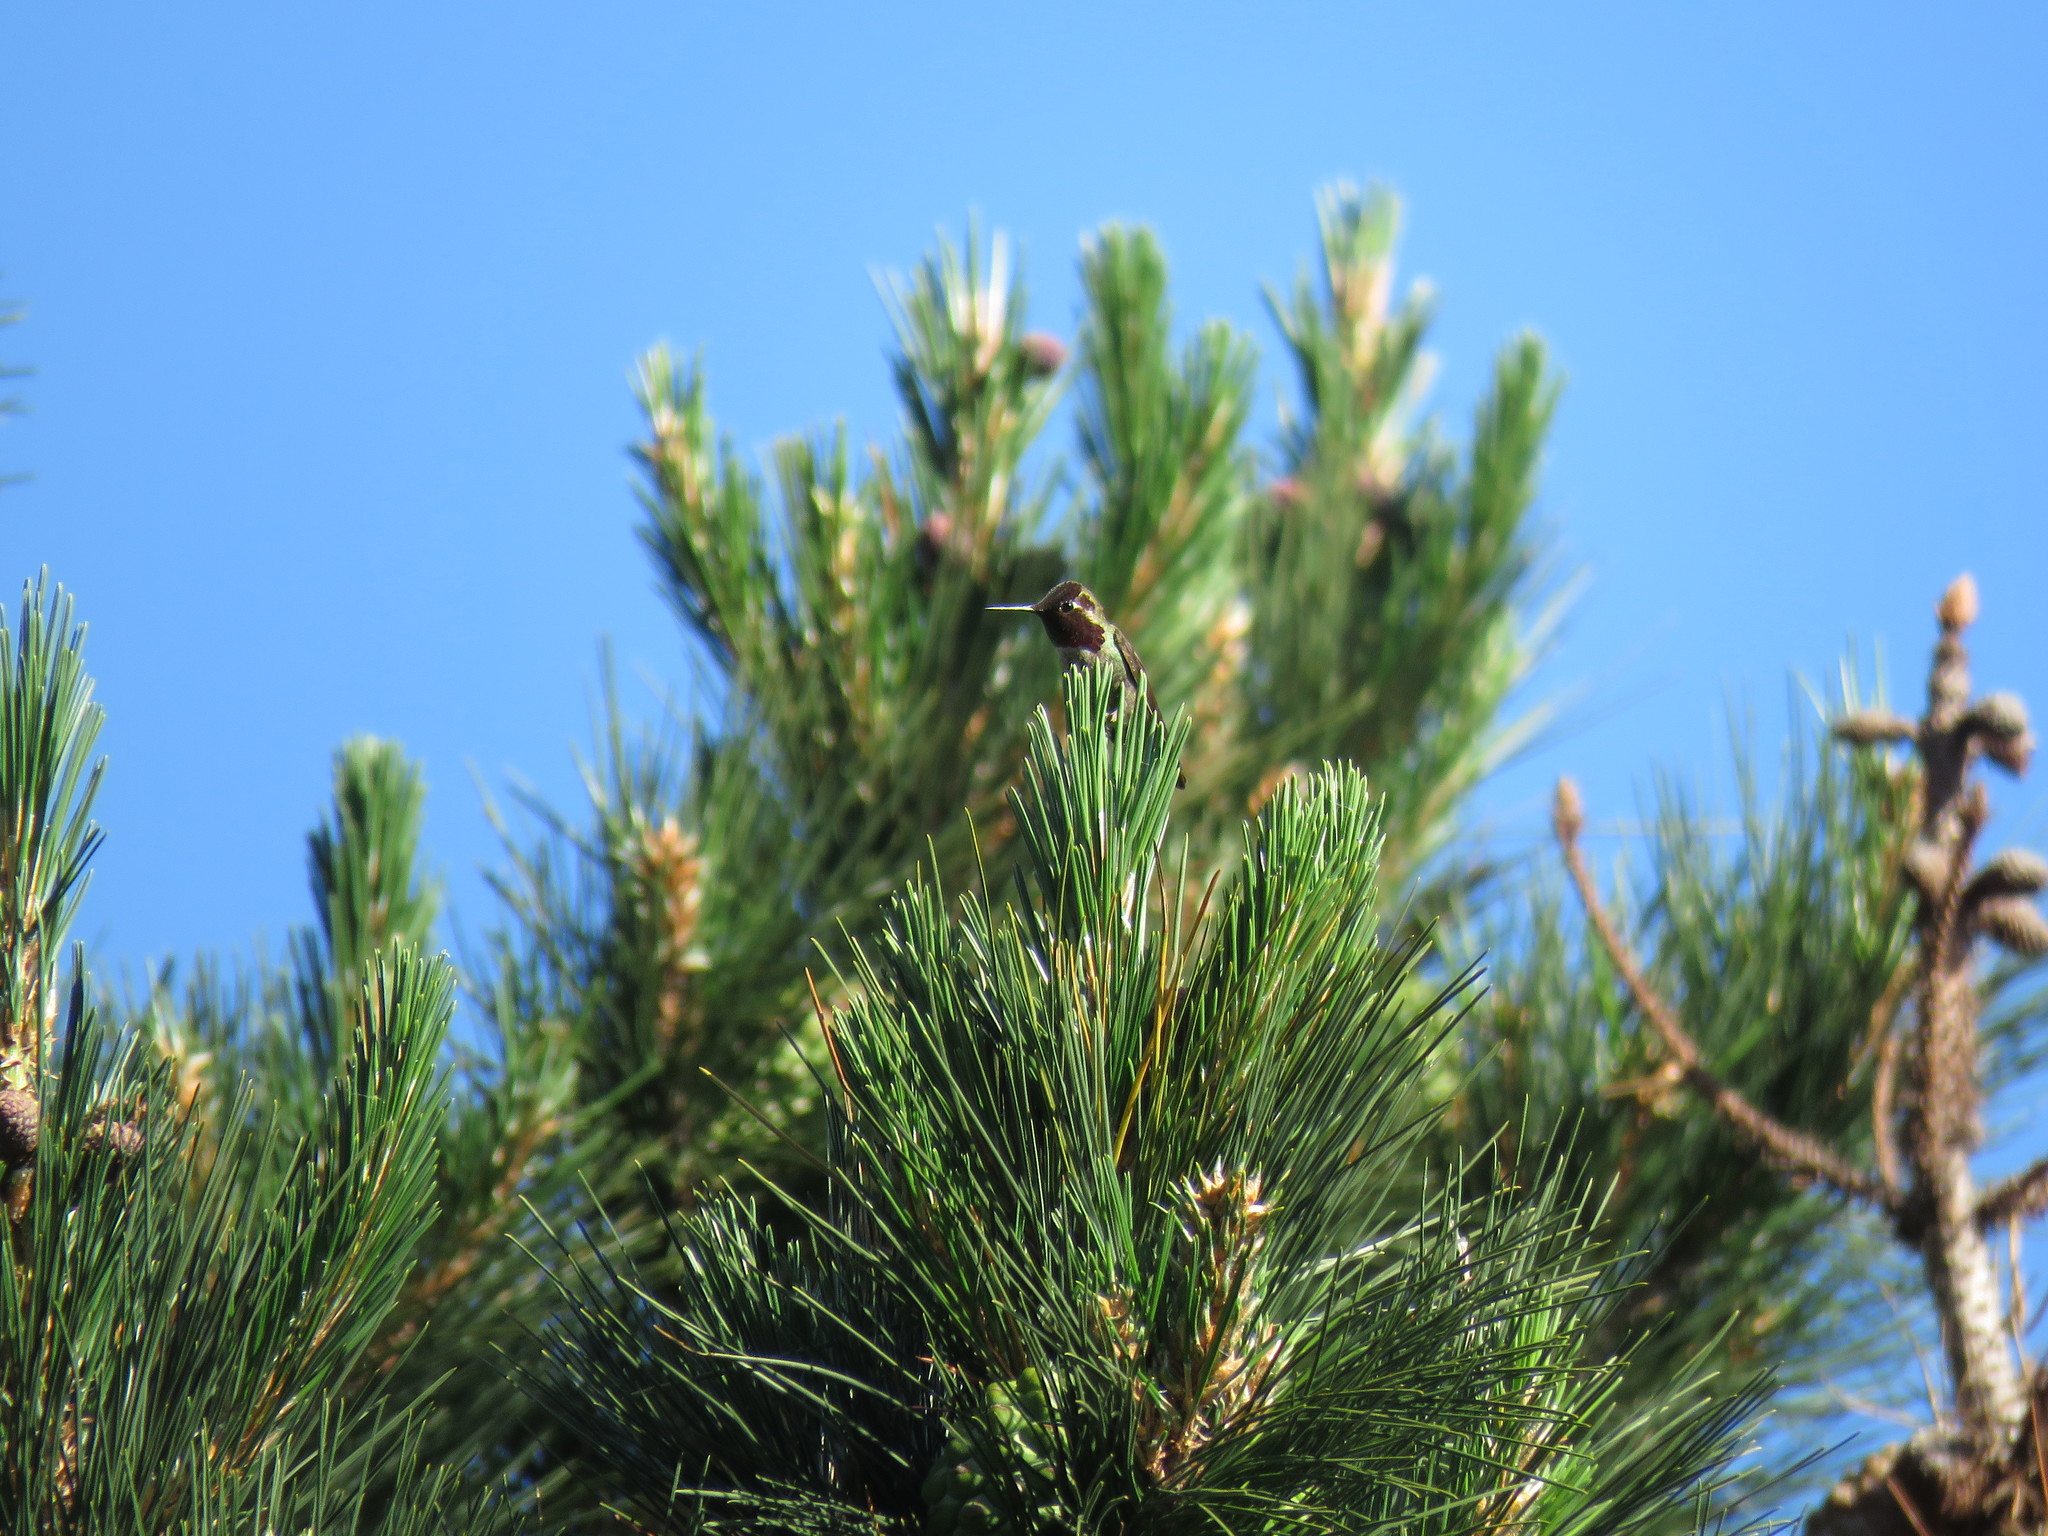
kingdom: Animalia
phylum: Chordata
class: Aves
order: Apodiformes
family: Trochilidae
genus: Calypte
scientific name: Calypte anna
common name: Anna's hummingbird
